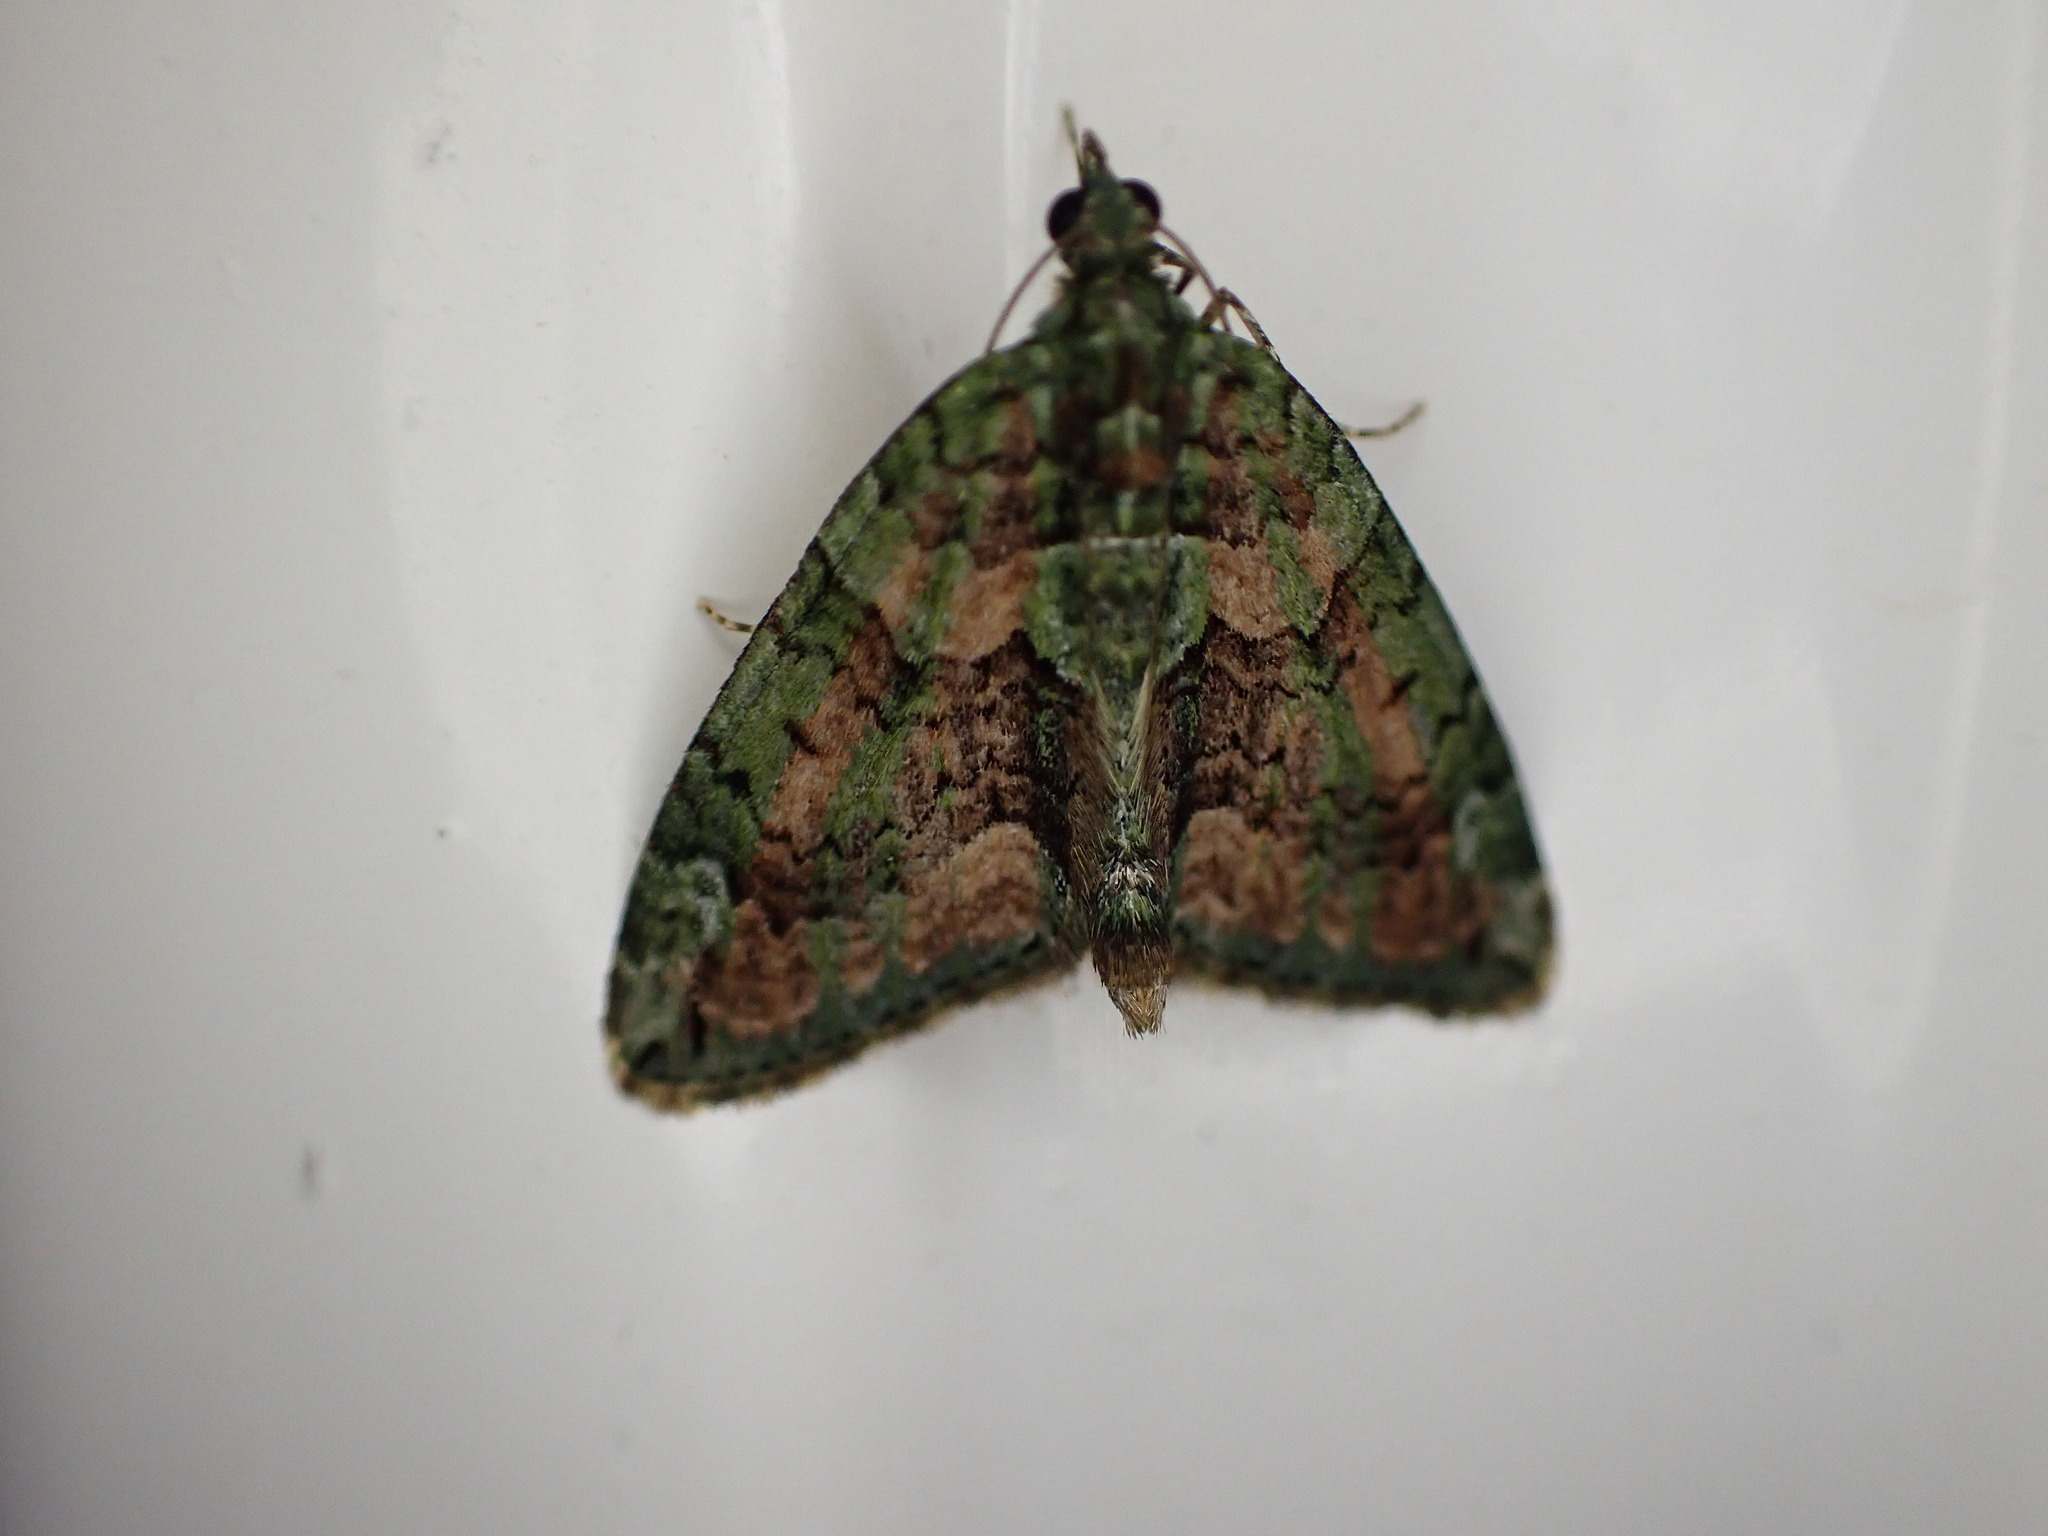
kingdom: Animalia
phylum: Arthropoda
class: Insecta
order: Lepidoptera
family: Geometridae
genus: Chloroclysta
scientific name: Chloroclysta siterata
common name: Red-green carpet
